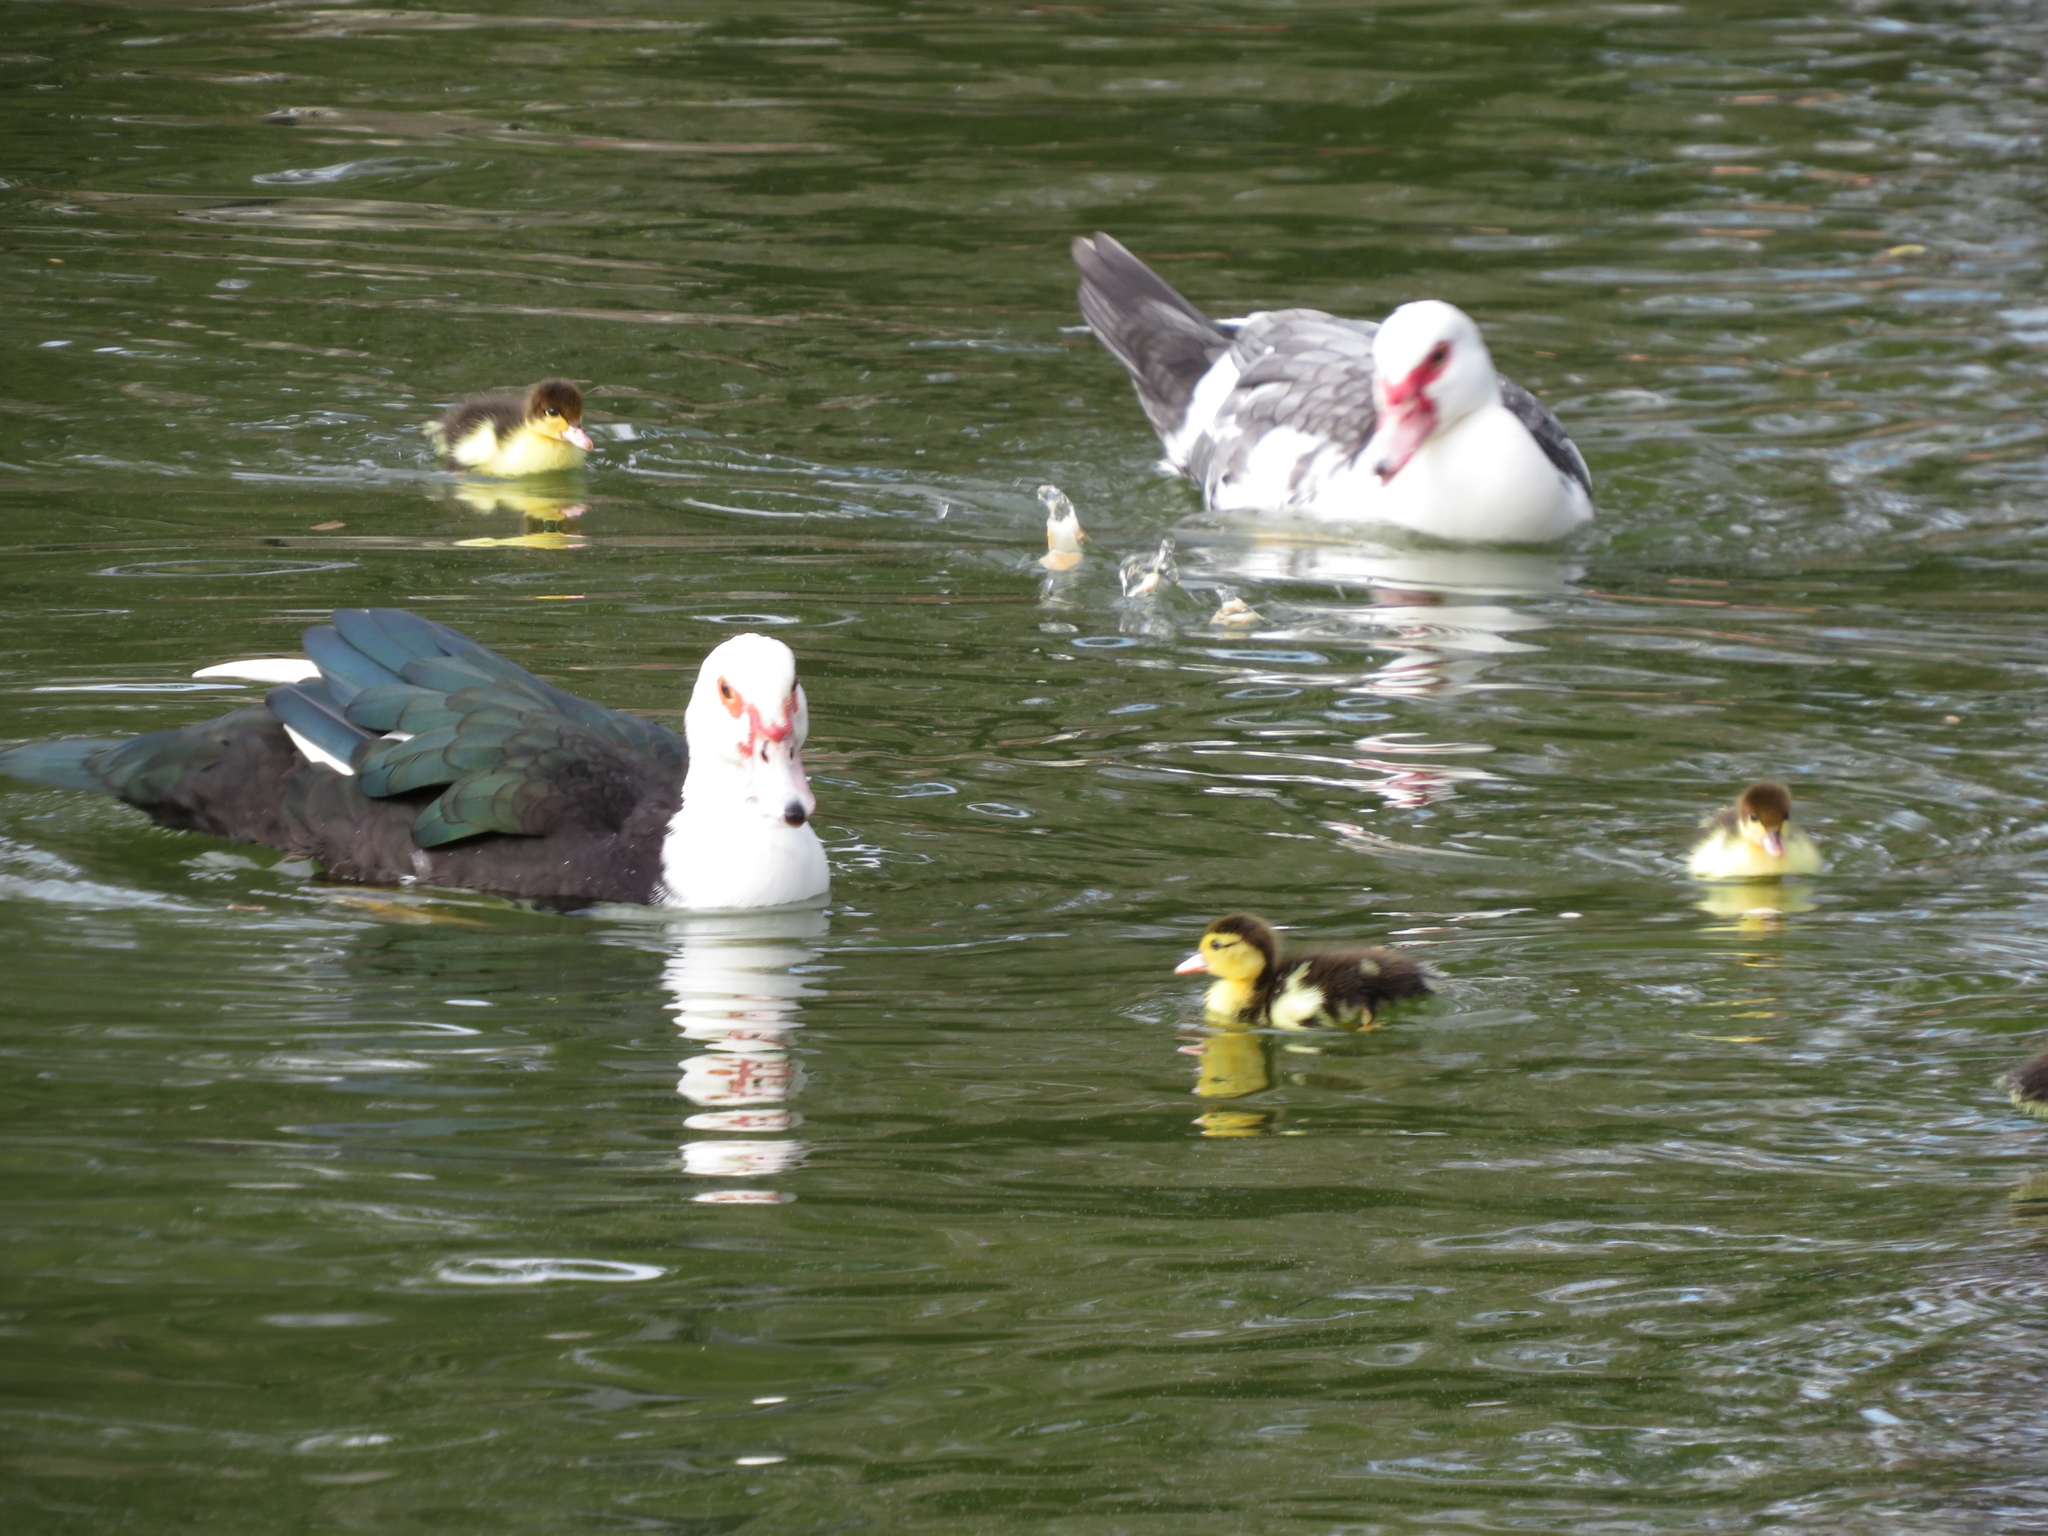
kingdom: Animalia
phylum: Chordata
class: Aves
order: Anseriformes
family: Anatidae
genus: Cairina
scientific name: Cairina moschata
